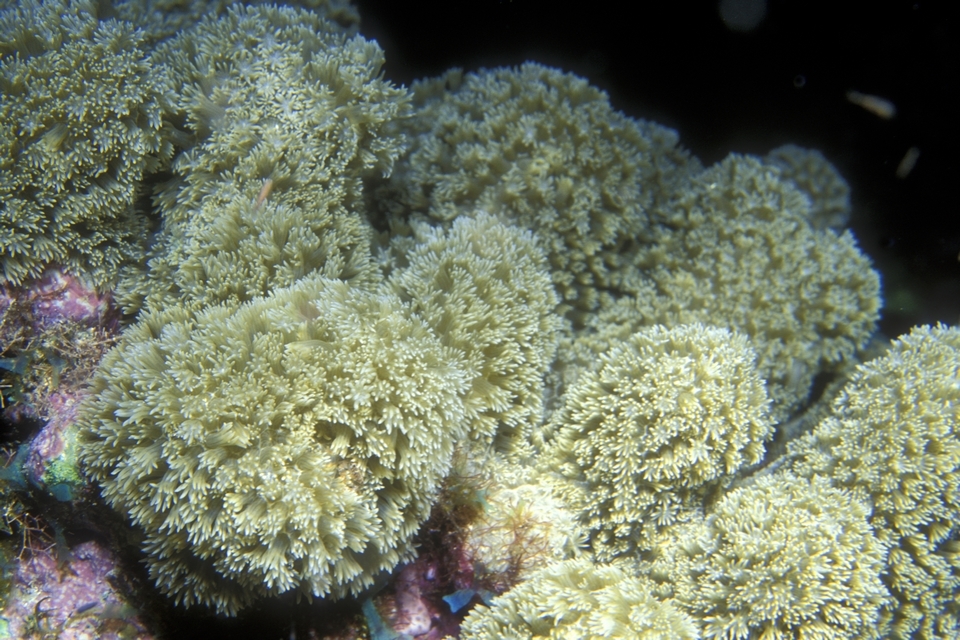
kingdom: Animalia
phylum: Cnidaria
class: Anthozoa
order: Scleractinia
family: Poritidae
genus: Porites
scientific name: Porites porites
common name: Finger coral
